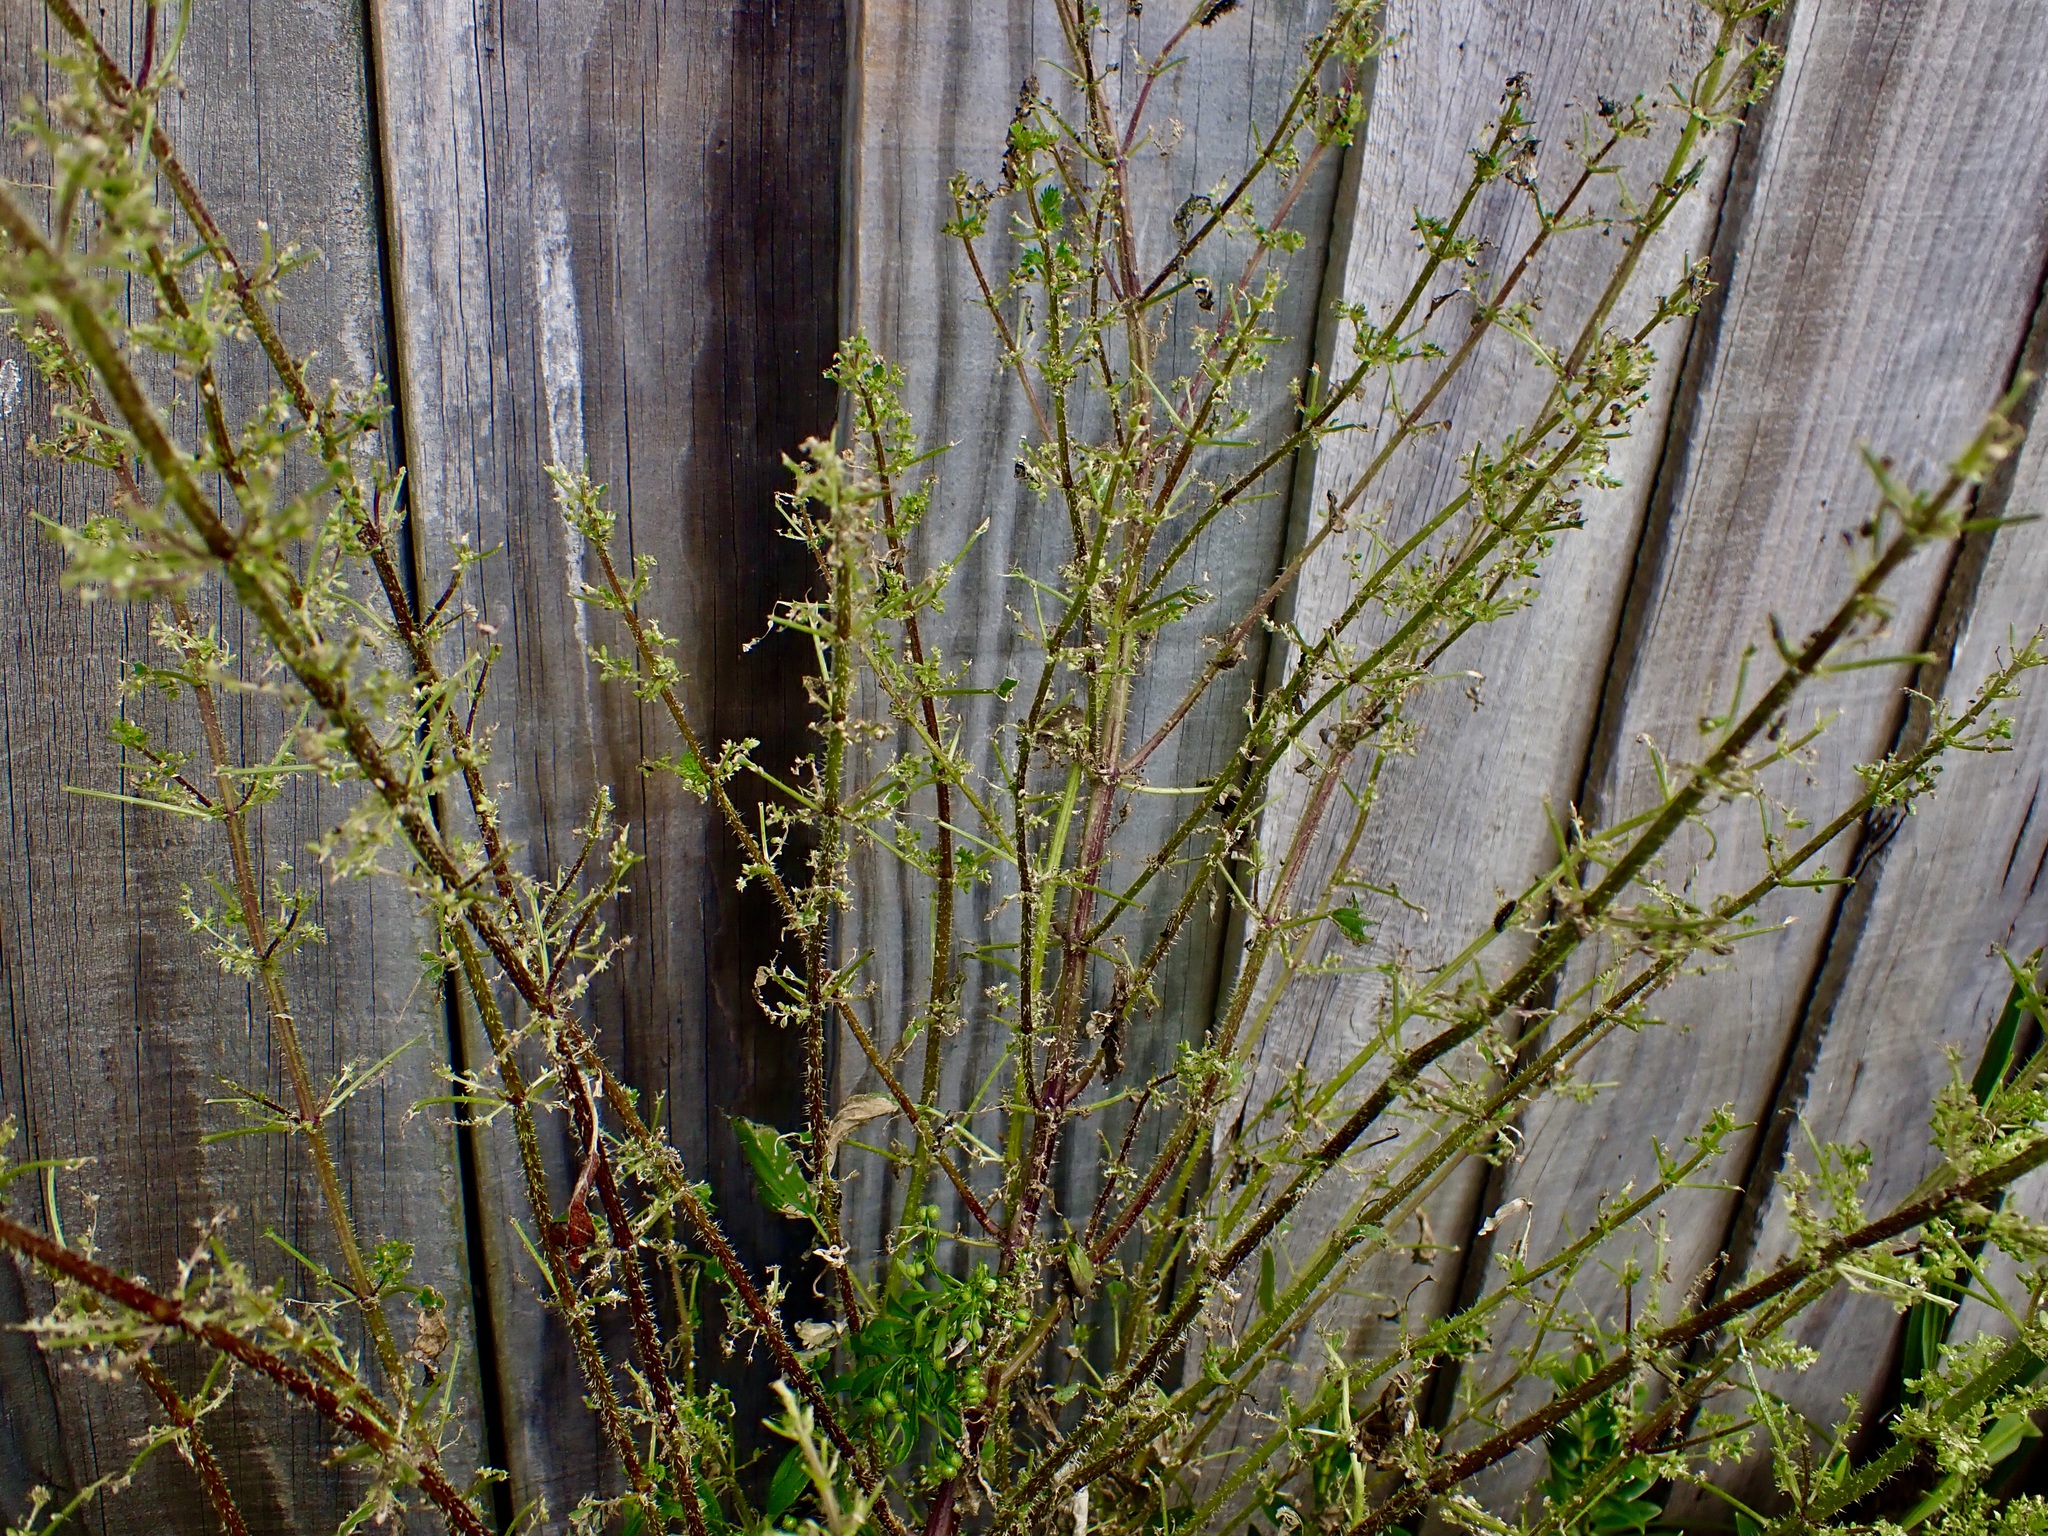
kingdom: Animalia
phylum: Arthropoda
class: Insecta
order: Lepidoptera
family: Nymphalidae
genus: Vanessa
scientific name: Vanessa itea
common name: Yellow admiral
